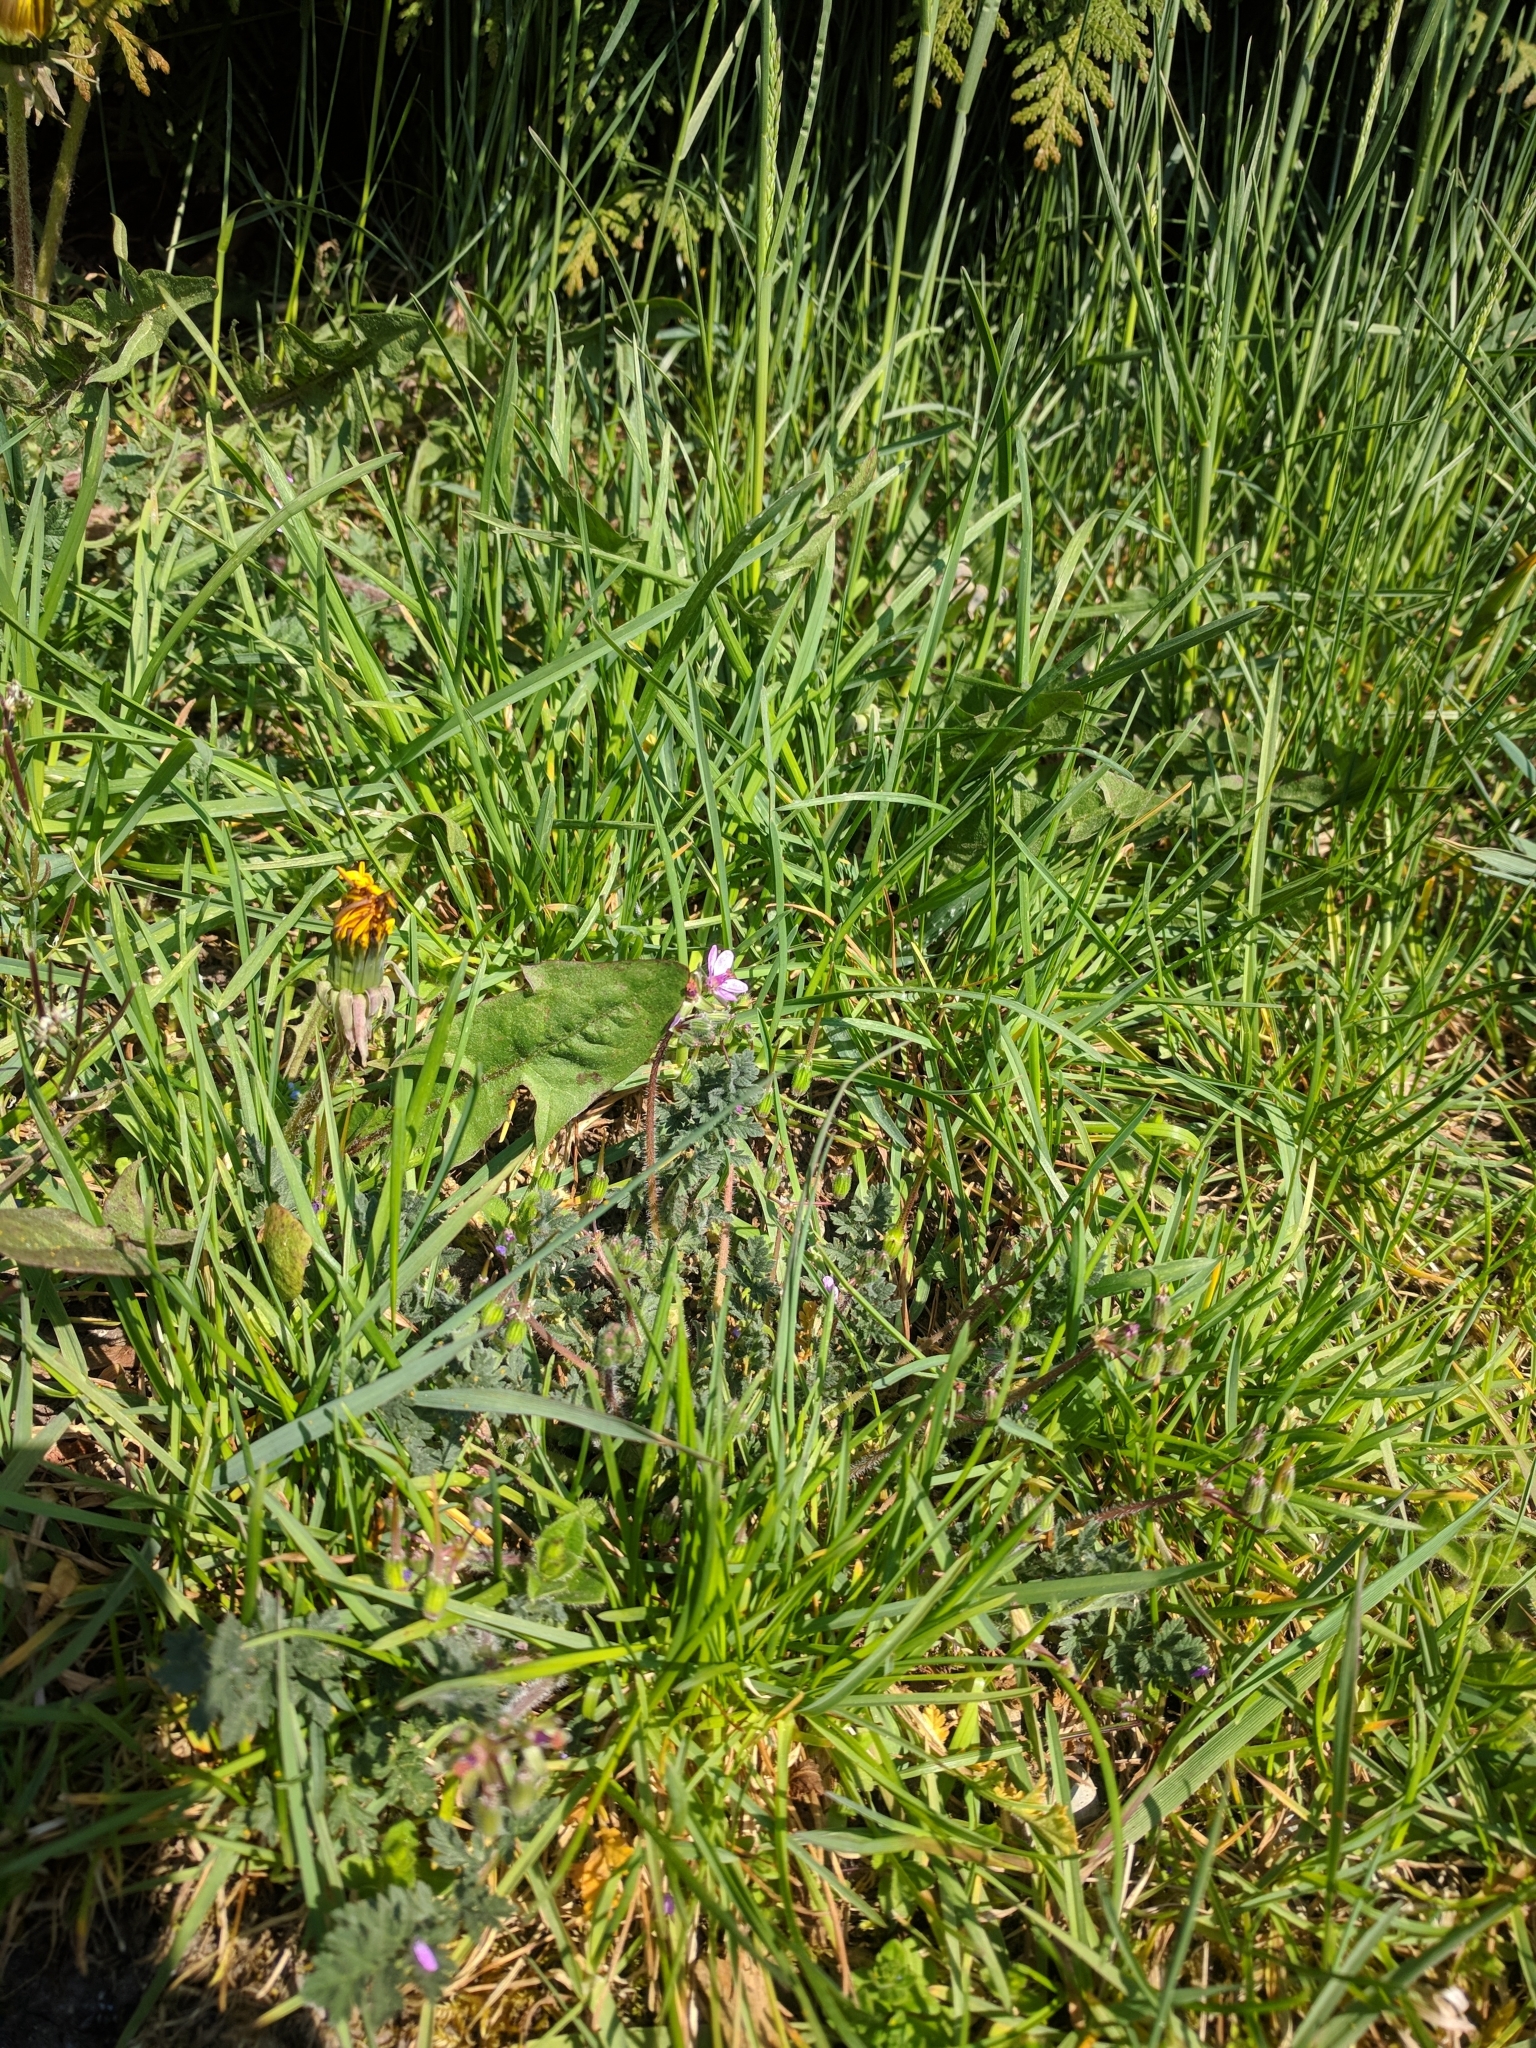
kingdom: Plantae
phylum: Tracheophyta
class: Magnoliopsida
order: Geraniales
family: Geraniaceae
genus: Erodium
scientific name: Erodium cicutarium
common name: Common stork's-bill
